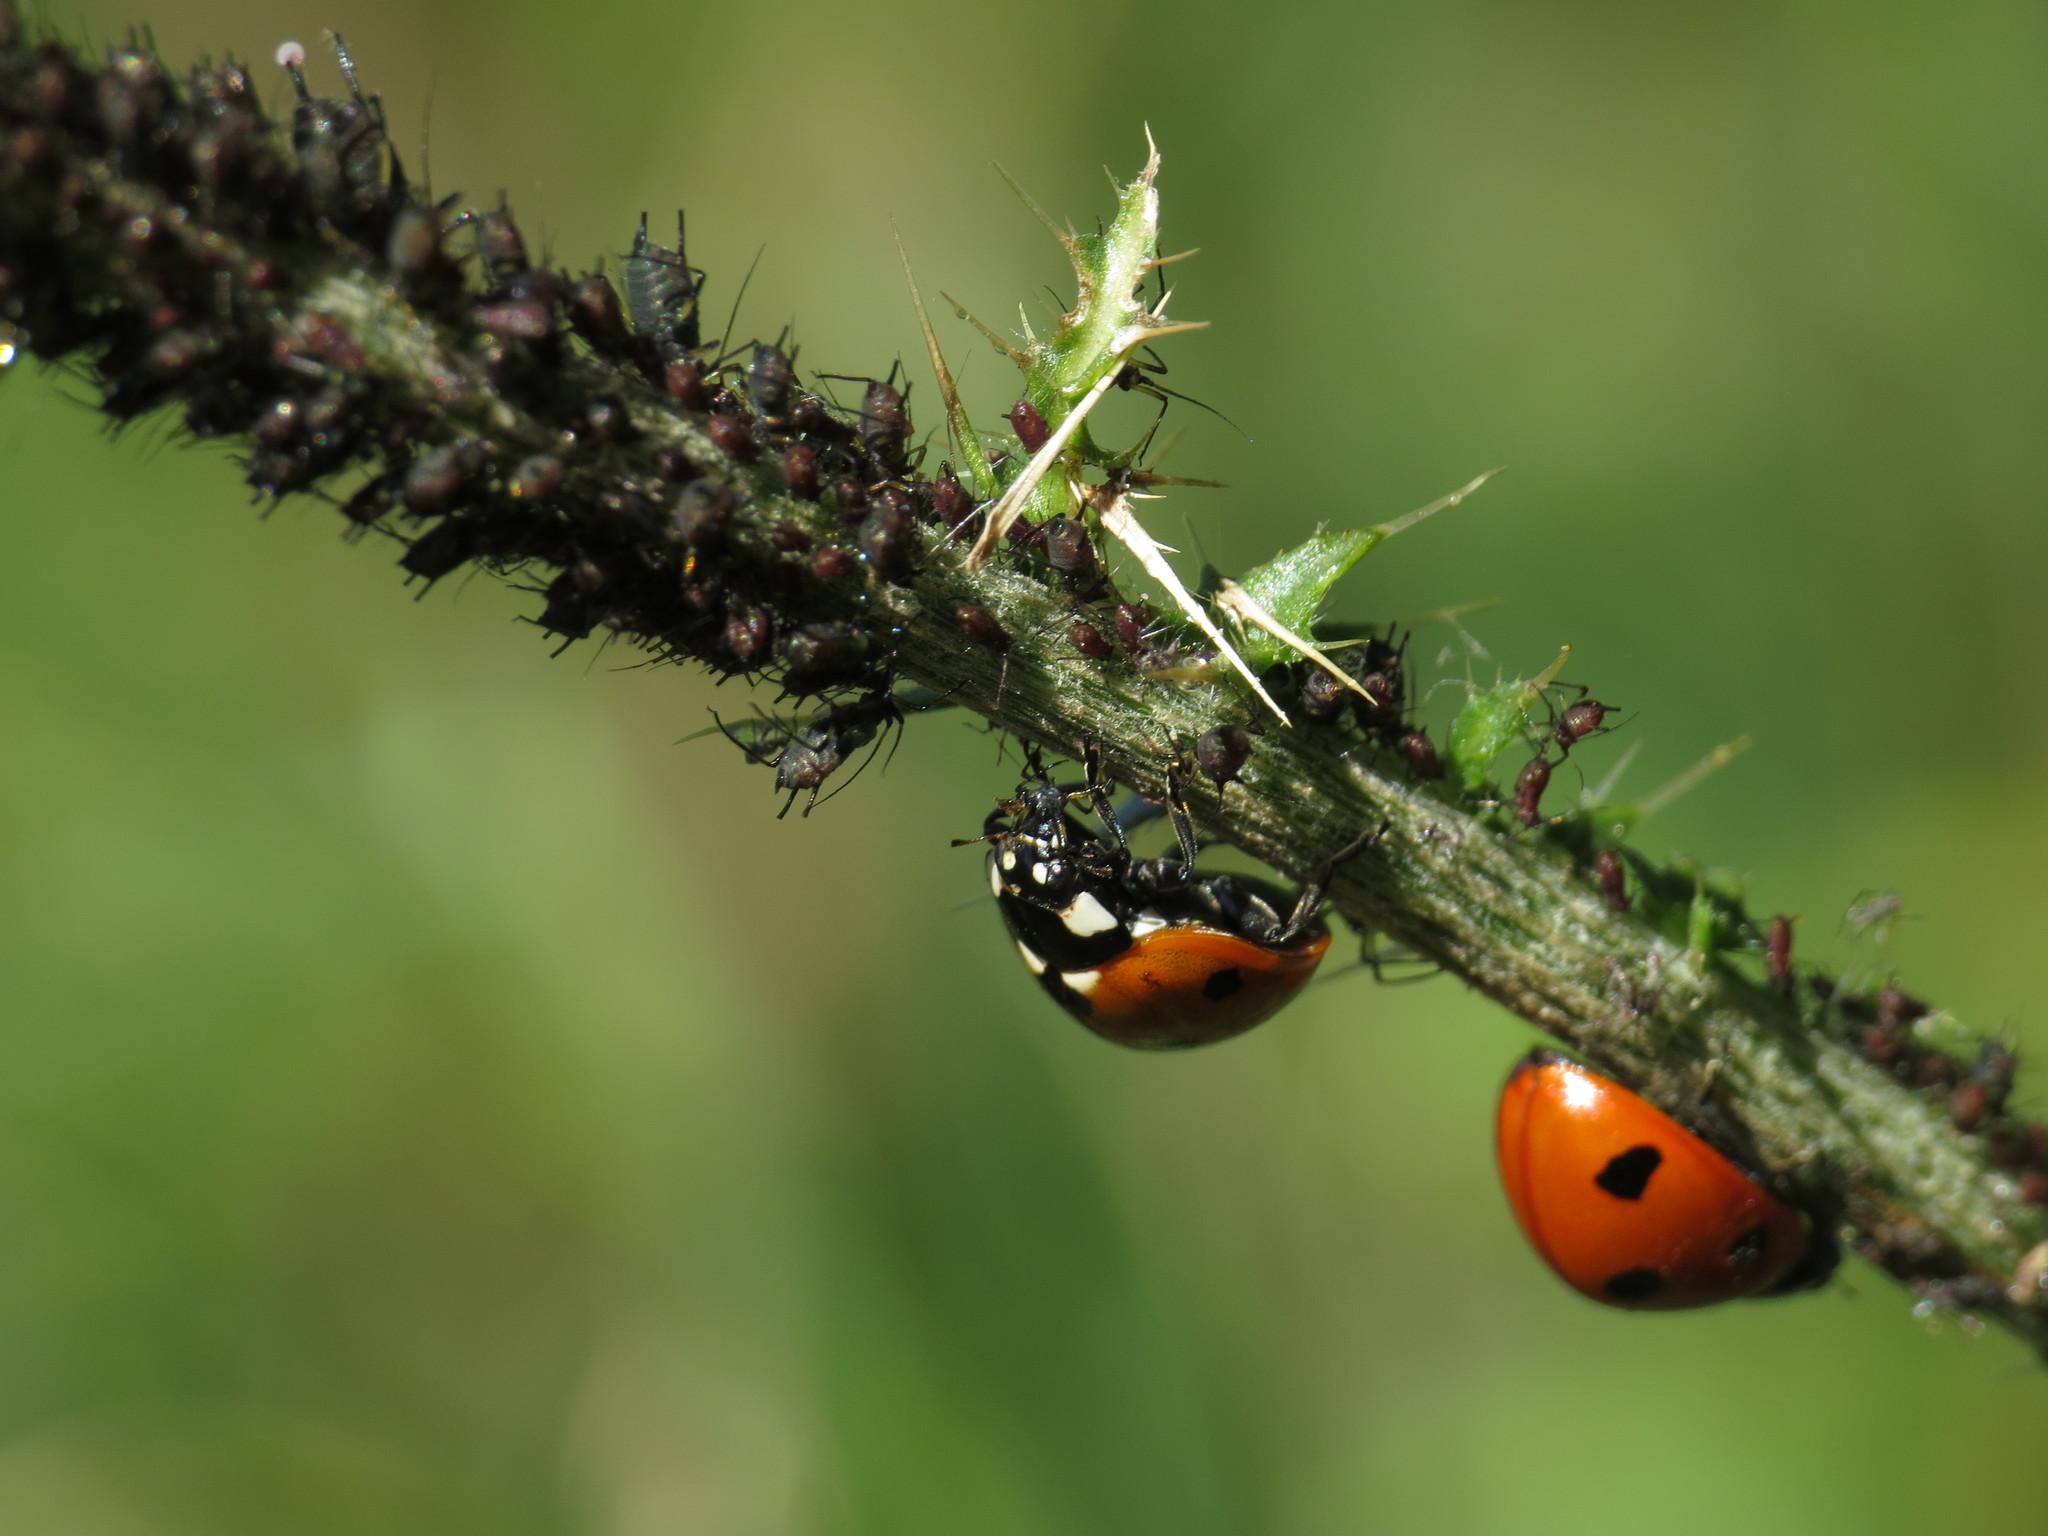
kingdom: Animalia
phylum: Arthropoda
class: Insecta
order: Coleoptera
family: Coccinellidae
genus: Coccinella
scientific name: Coccinella septempunctata
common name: Sevenspotted lady beetle
